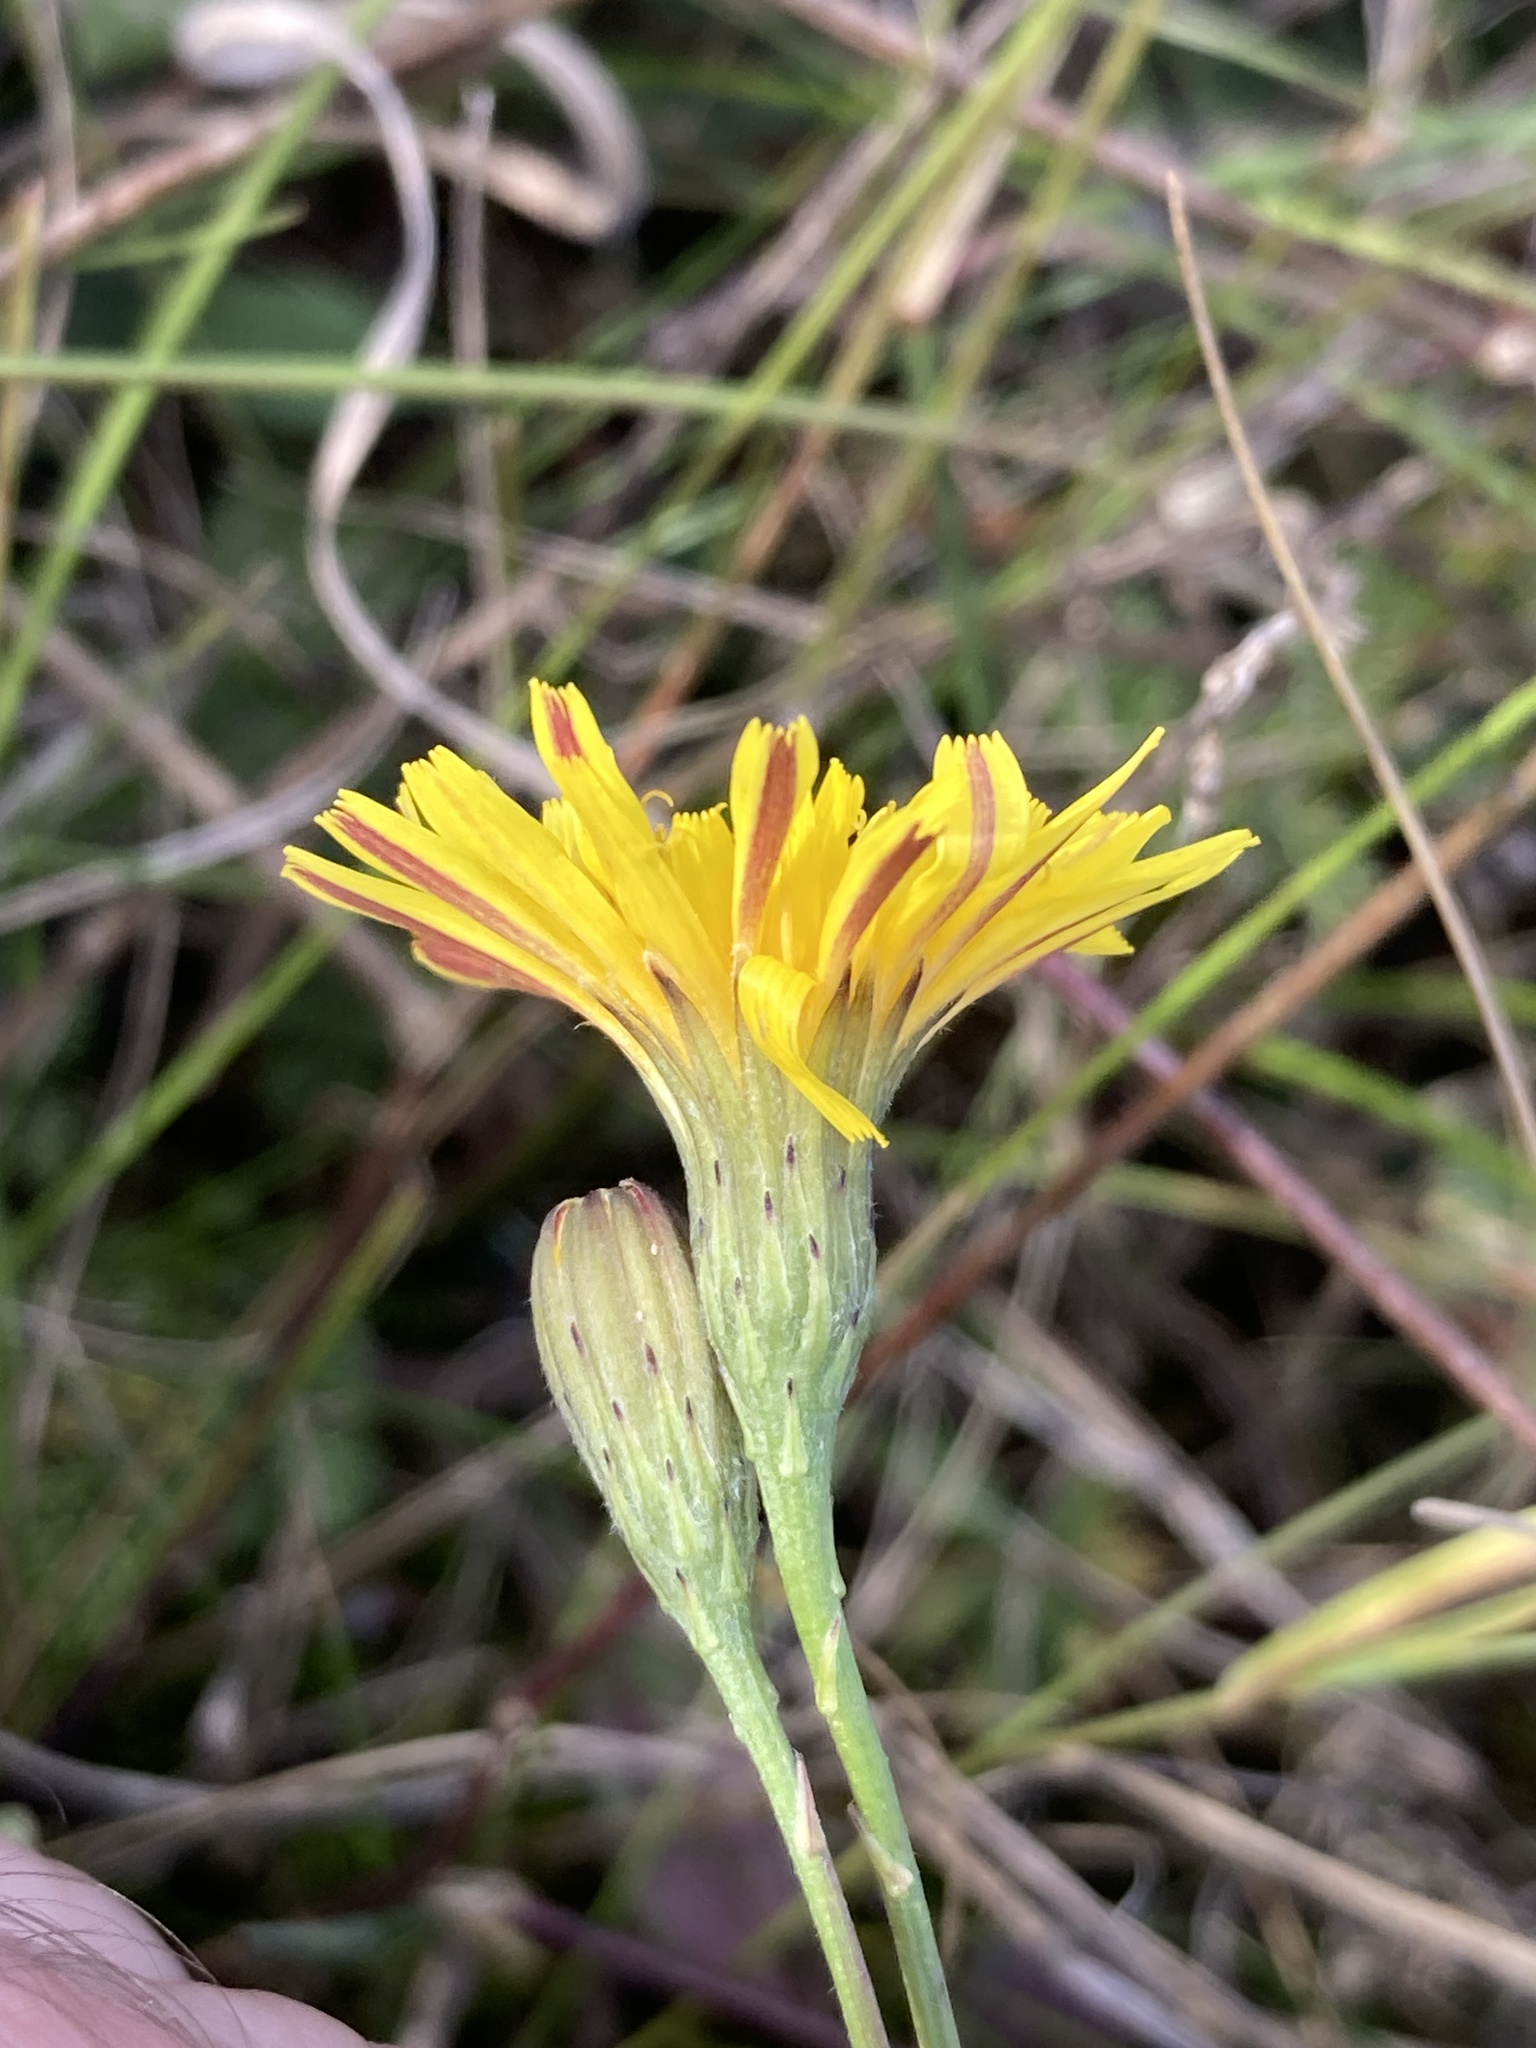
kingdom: Plantae
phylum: Tracheophyta
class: Magnoliopsida
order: Asterales
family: Asteraceae
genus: Scorzoneroides
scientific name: Scorzoneroides autumnalis
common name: Autumn hawkbit
